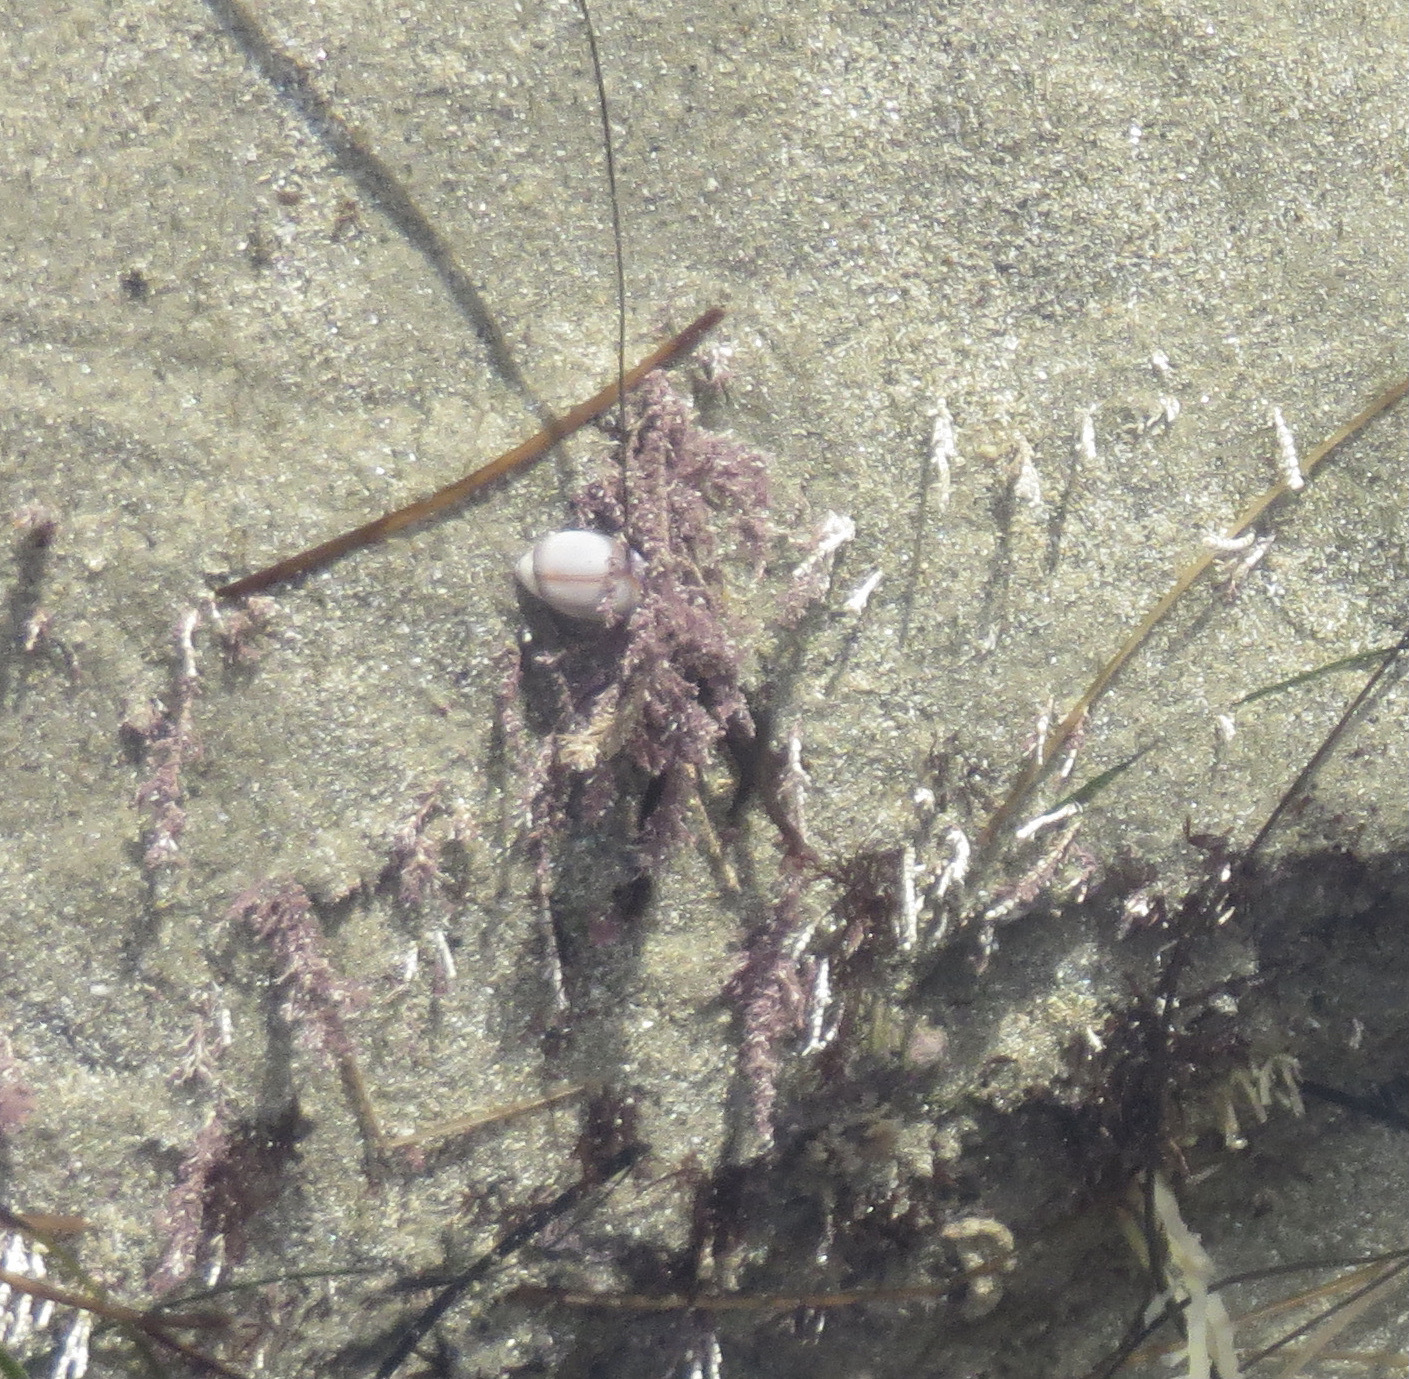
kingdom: Animalia
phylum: Mollusca
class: Gastropoda
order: Neogastropoda
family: Olividae
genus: Callianax
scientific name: Callianax biplicata
